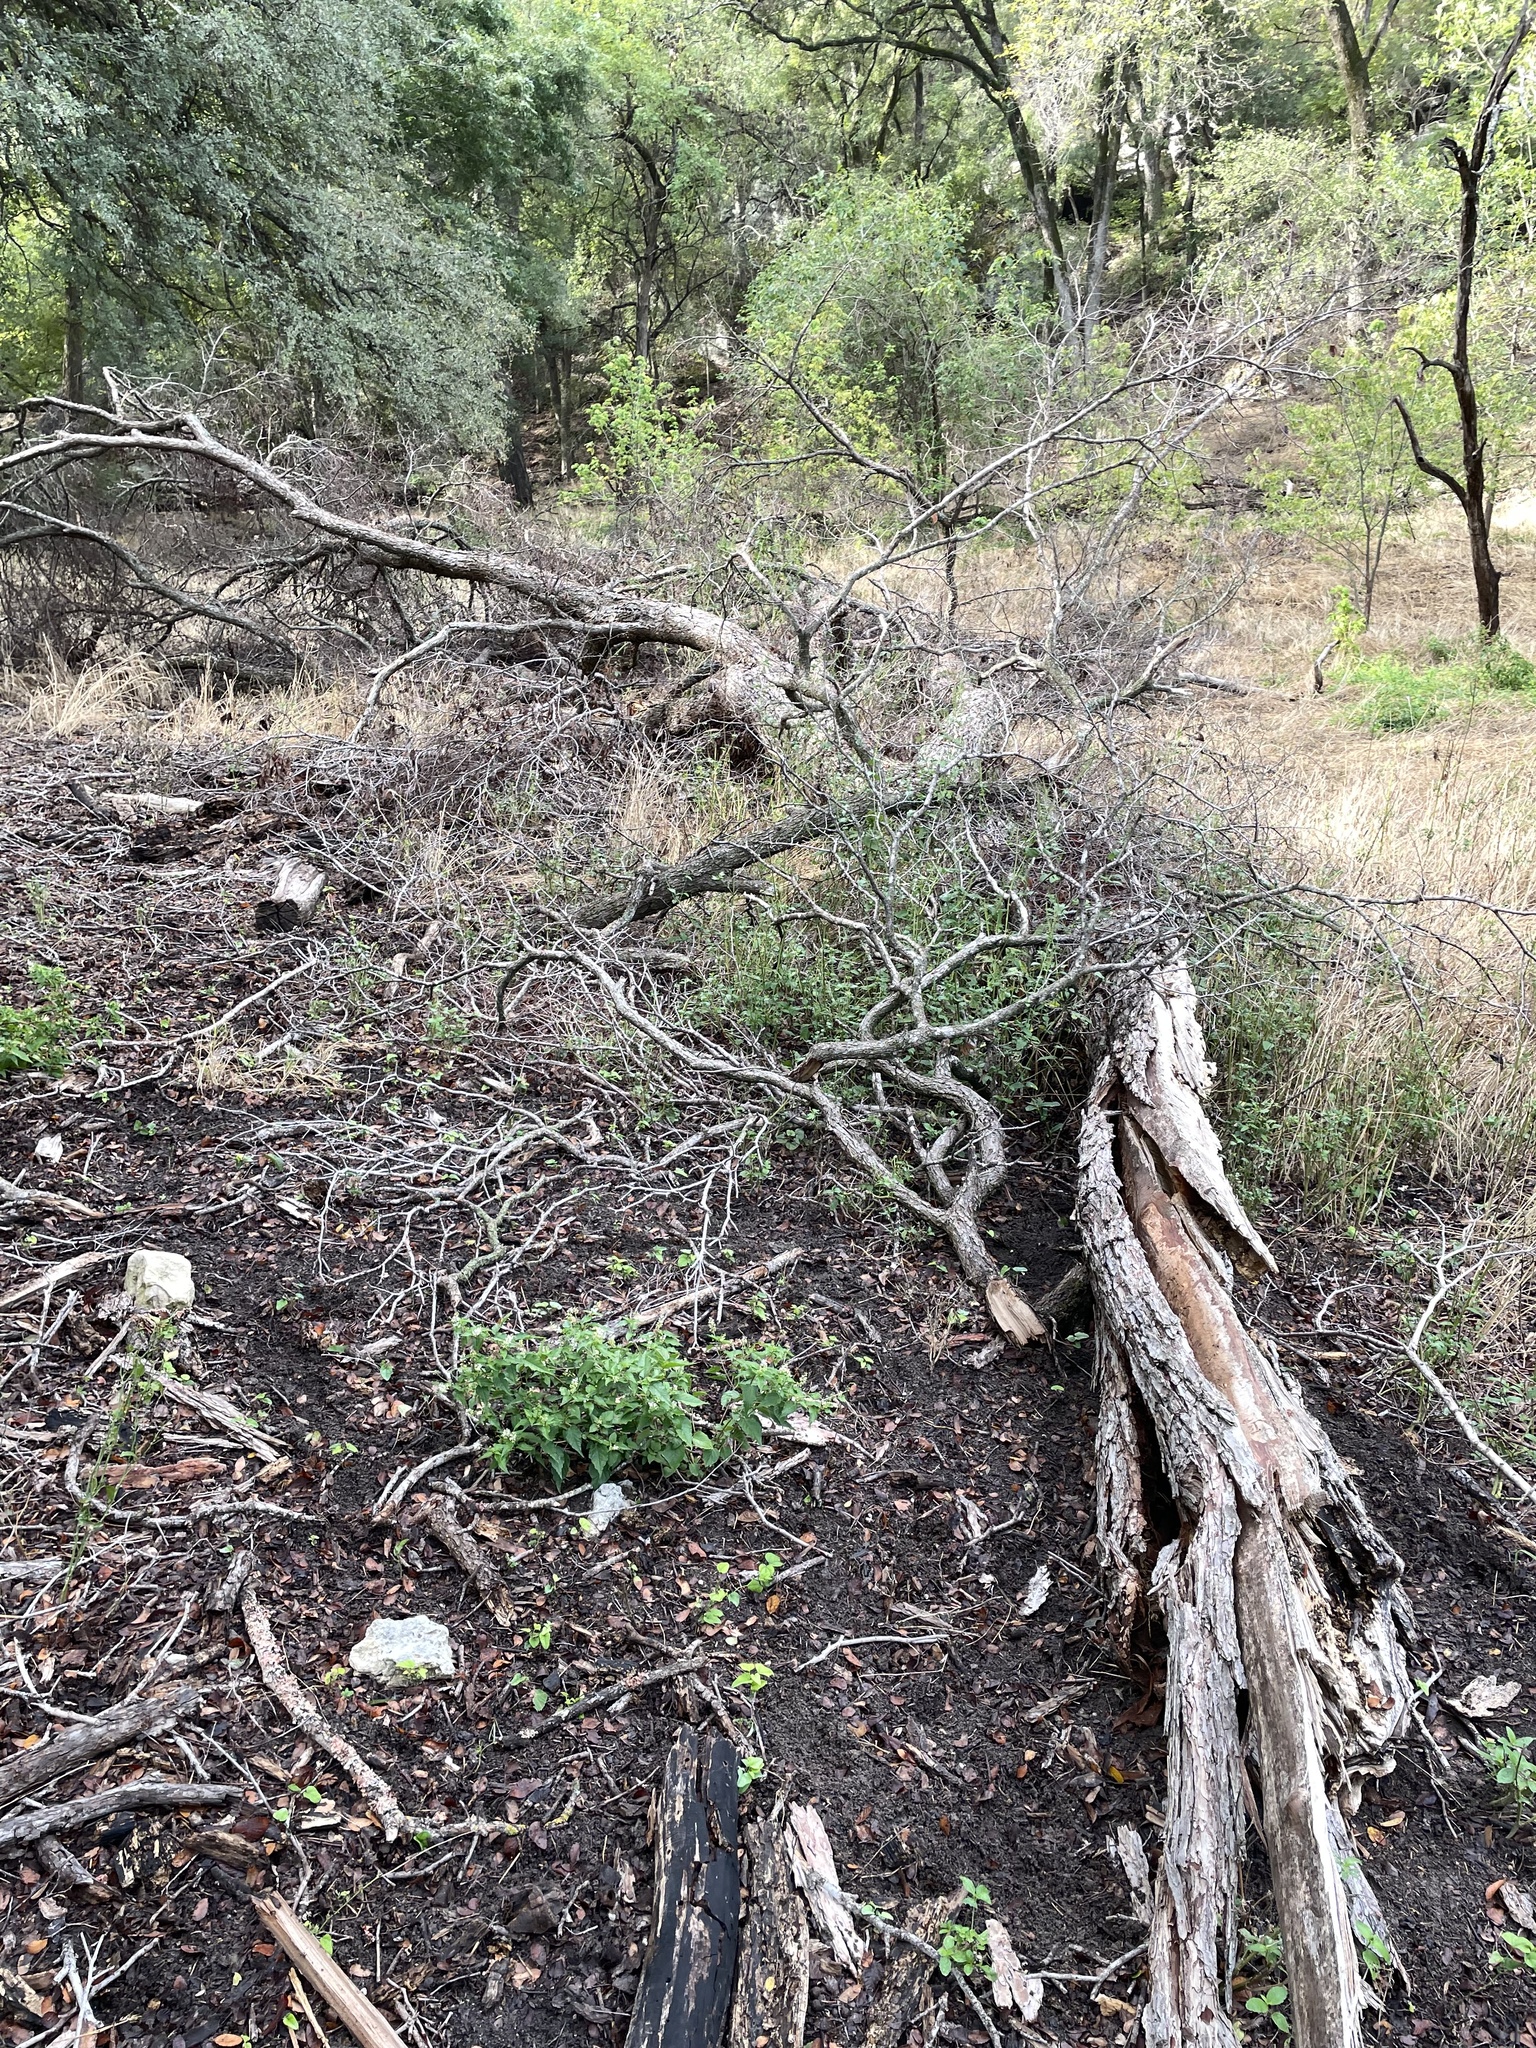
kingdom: Plantae
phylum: Tracheophyta
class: Magnoliopsida
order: Rosales
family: Ulmaceae
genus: Ulmus
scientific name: Ulmus crassifolia
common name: Basket elm
